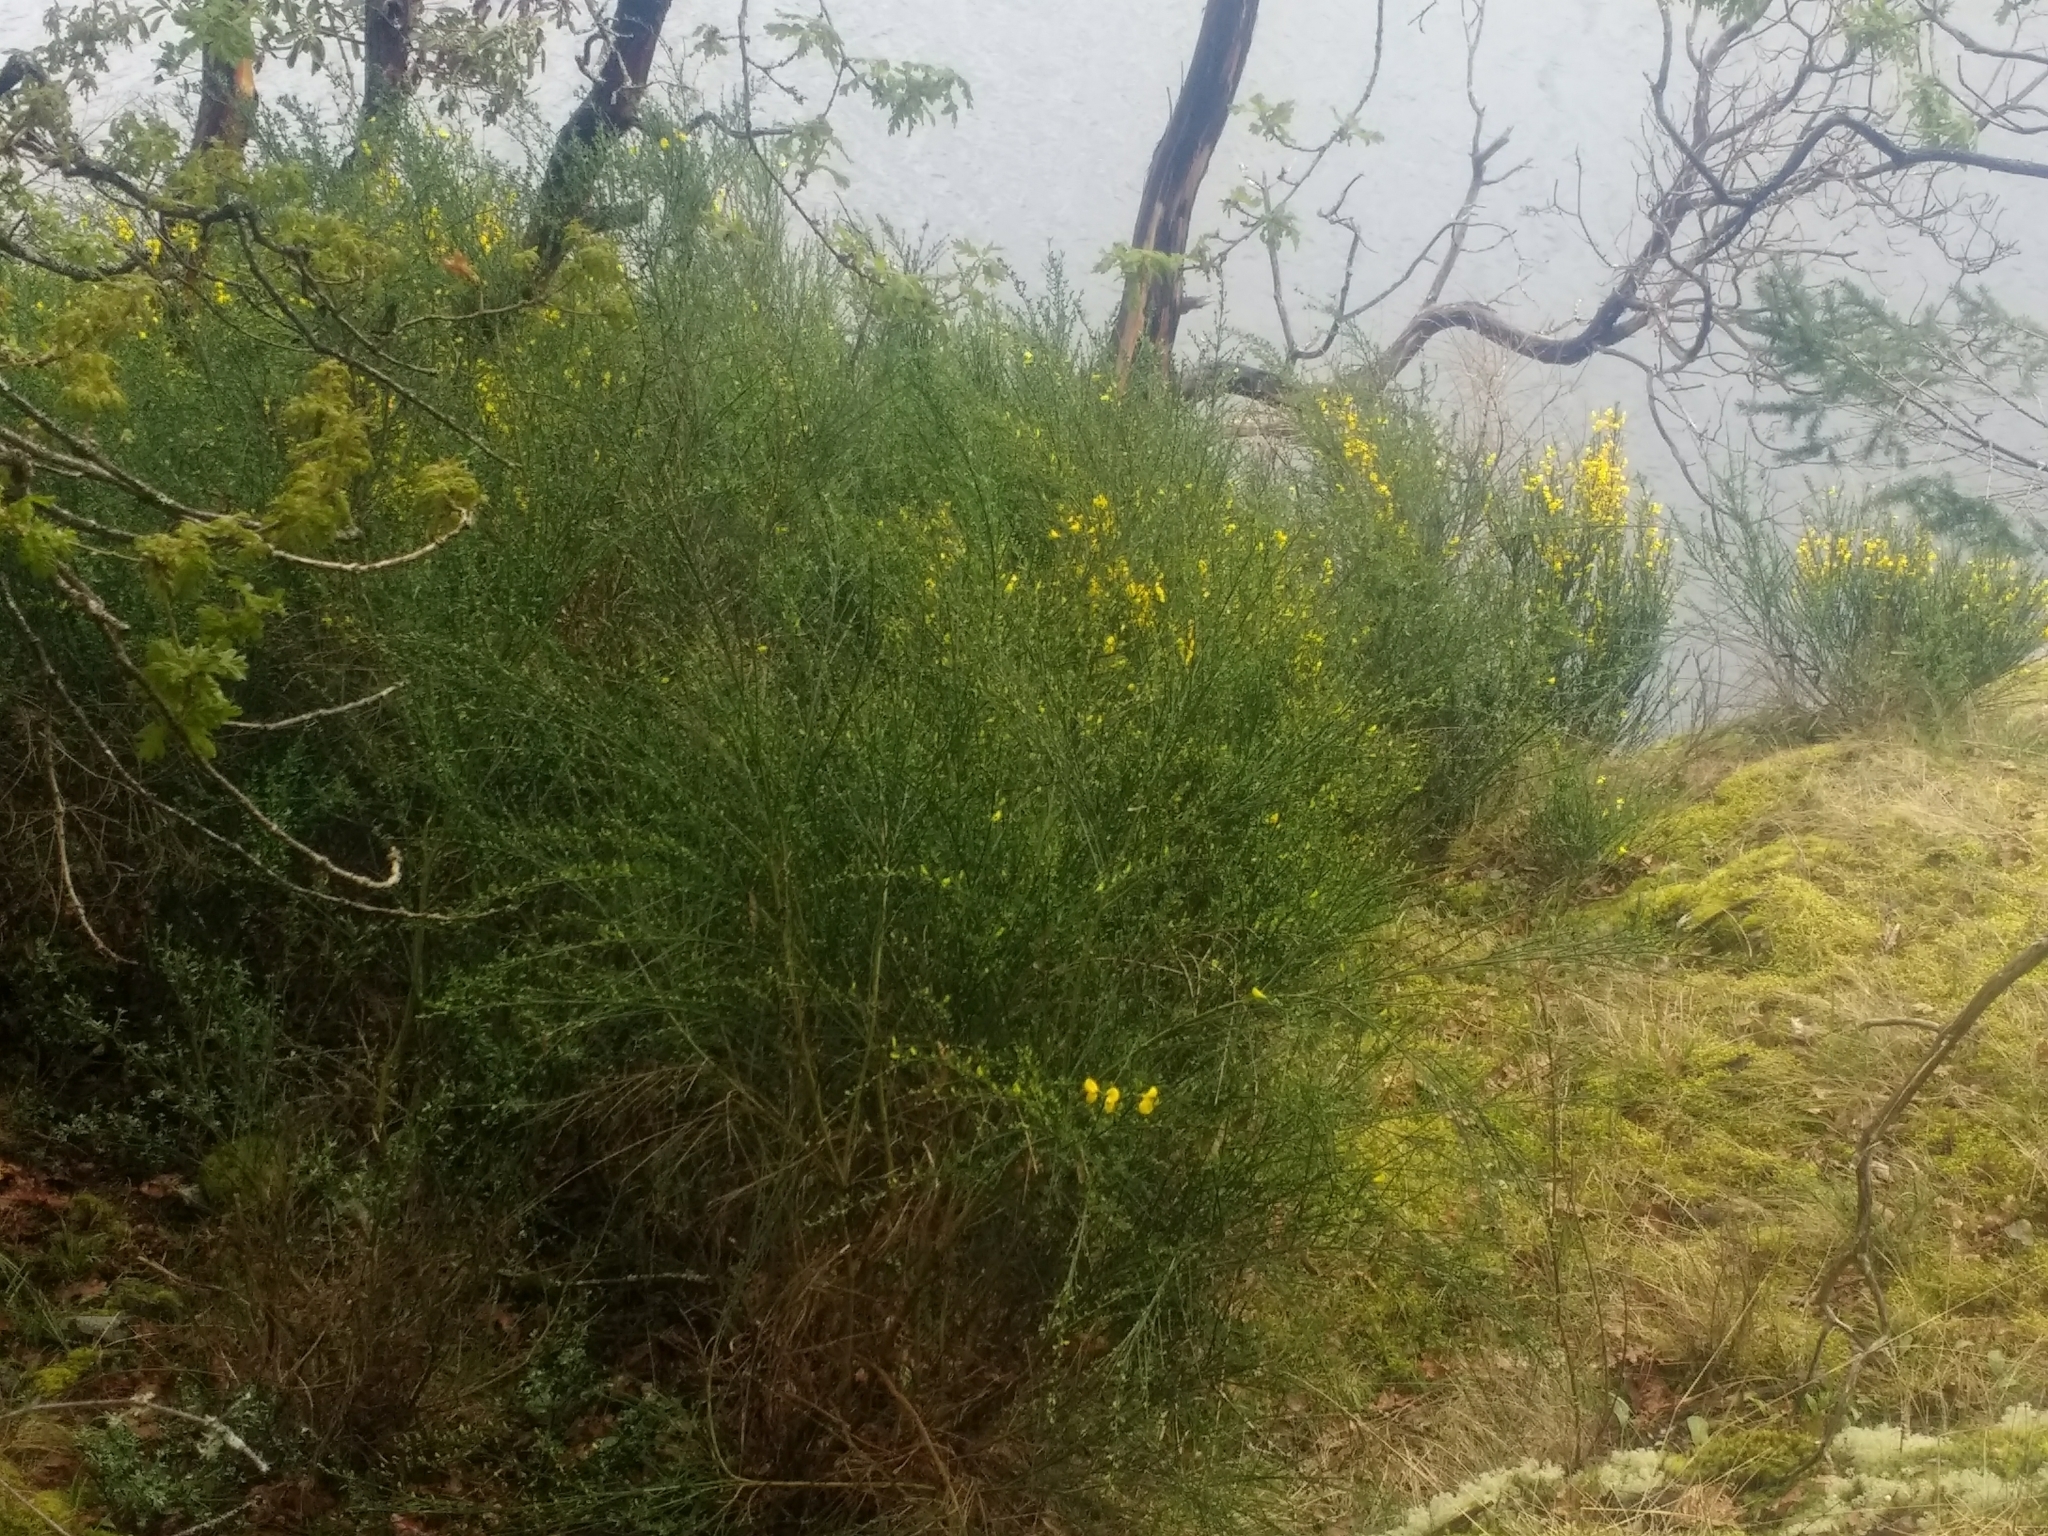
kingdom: Plantae
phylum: Tracheophyta
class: Magnoliopsida
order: Fabales
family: Fabaceae
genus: Cytisus
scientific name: Cytisus scoparius
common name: Scotch broom
